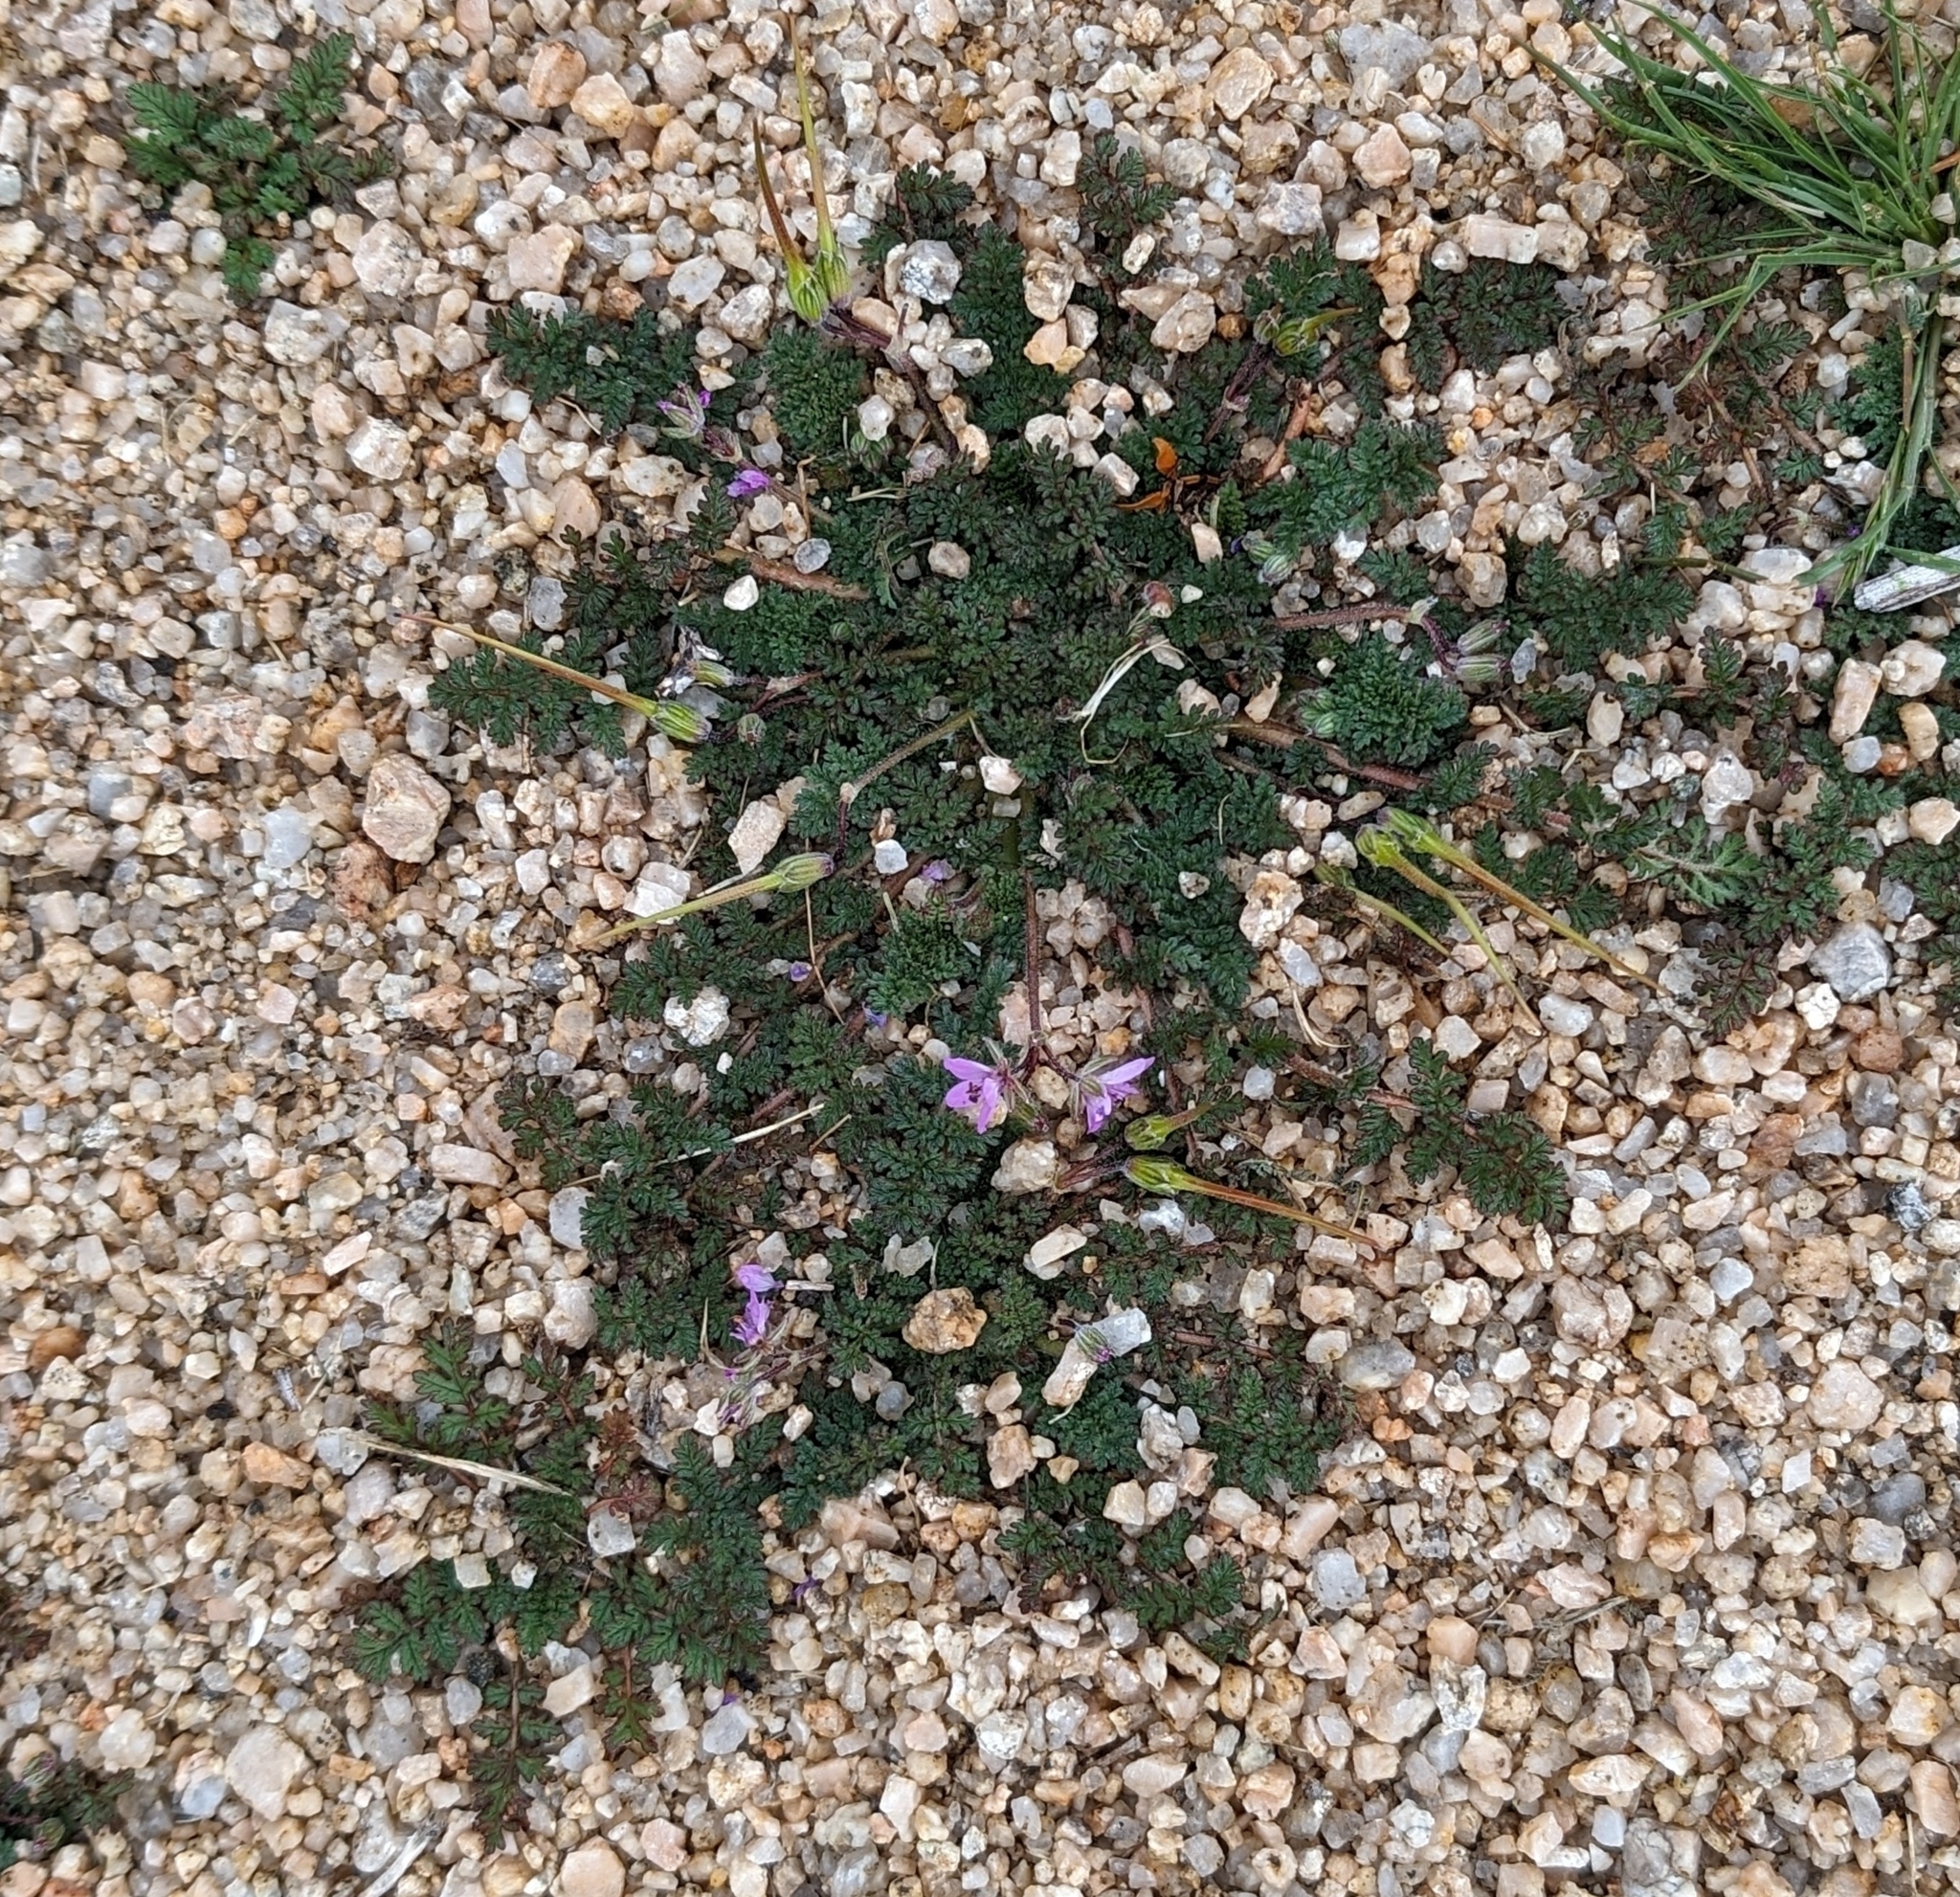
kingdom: Plantae
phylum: Tracheophyta
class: Magnoliopsida
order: Geraniales
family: Geraniaceae
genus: Erodium
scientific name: Erodium cicutarium
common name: Common stork's-bill
